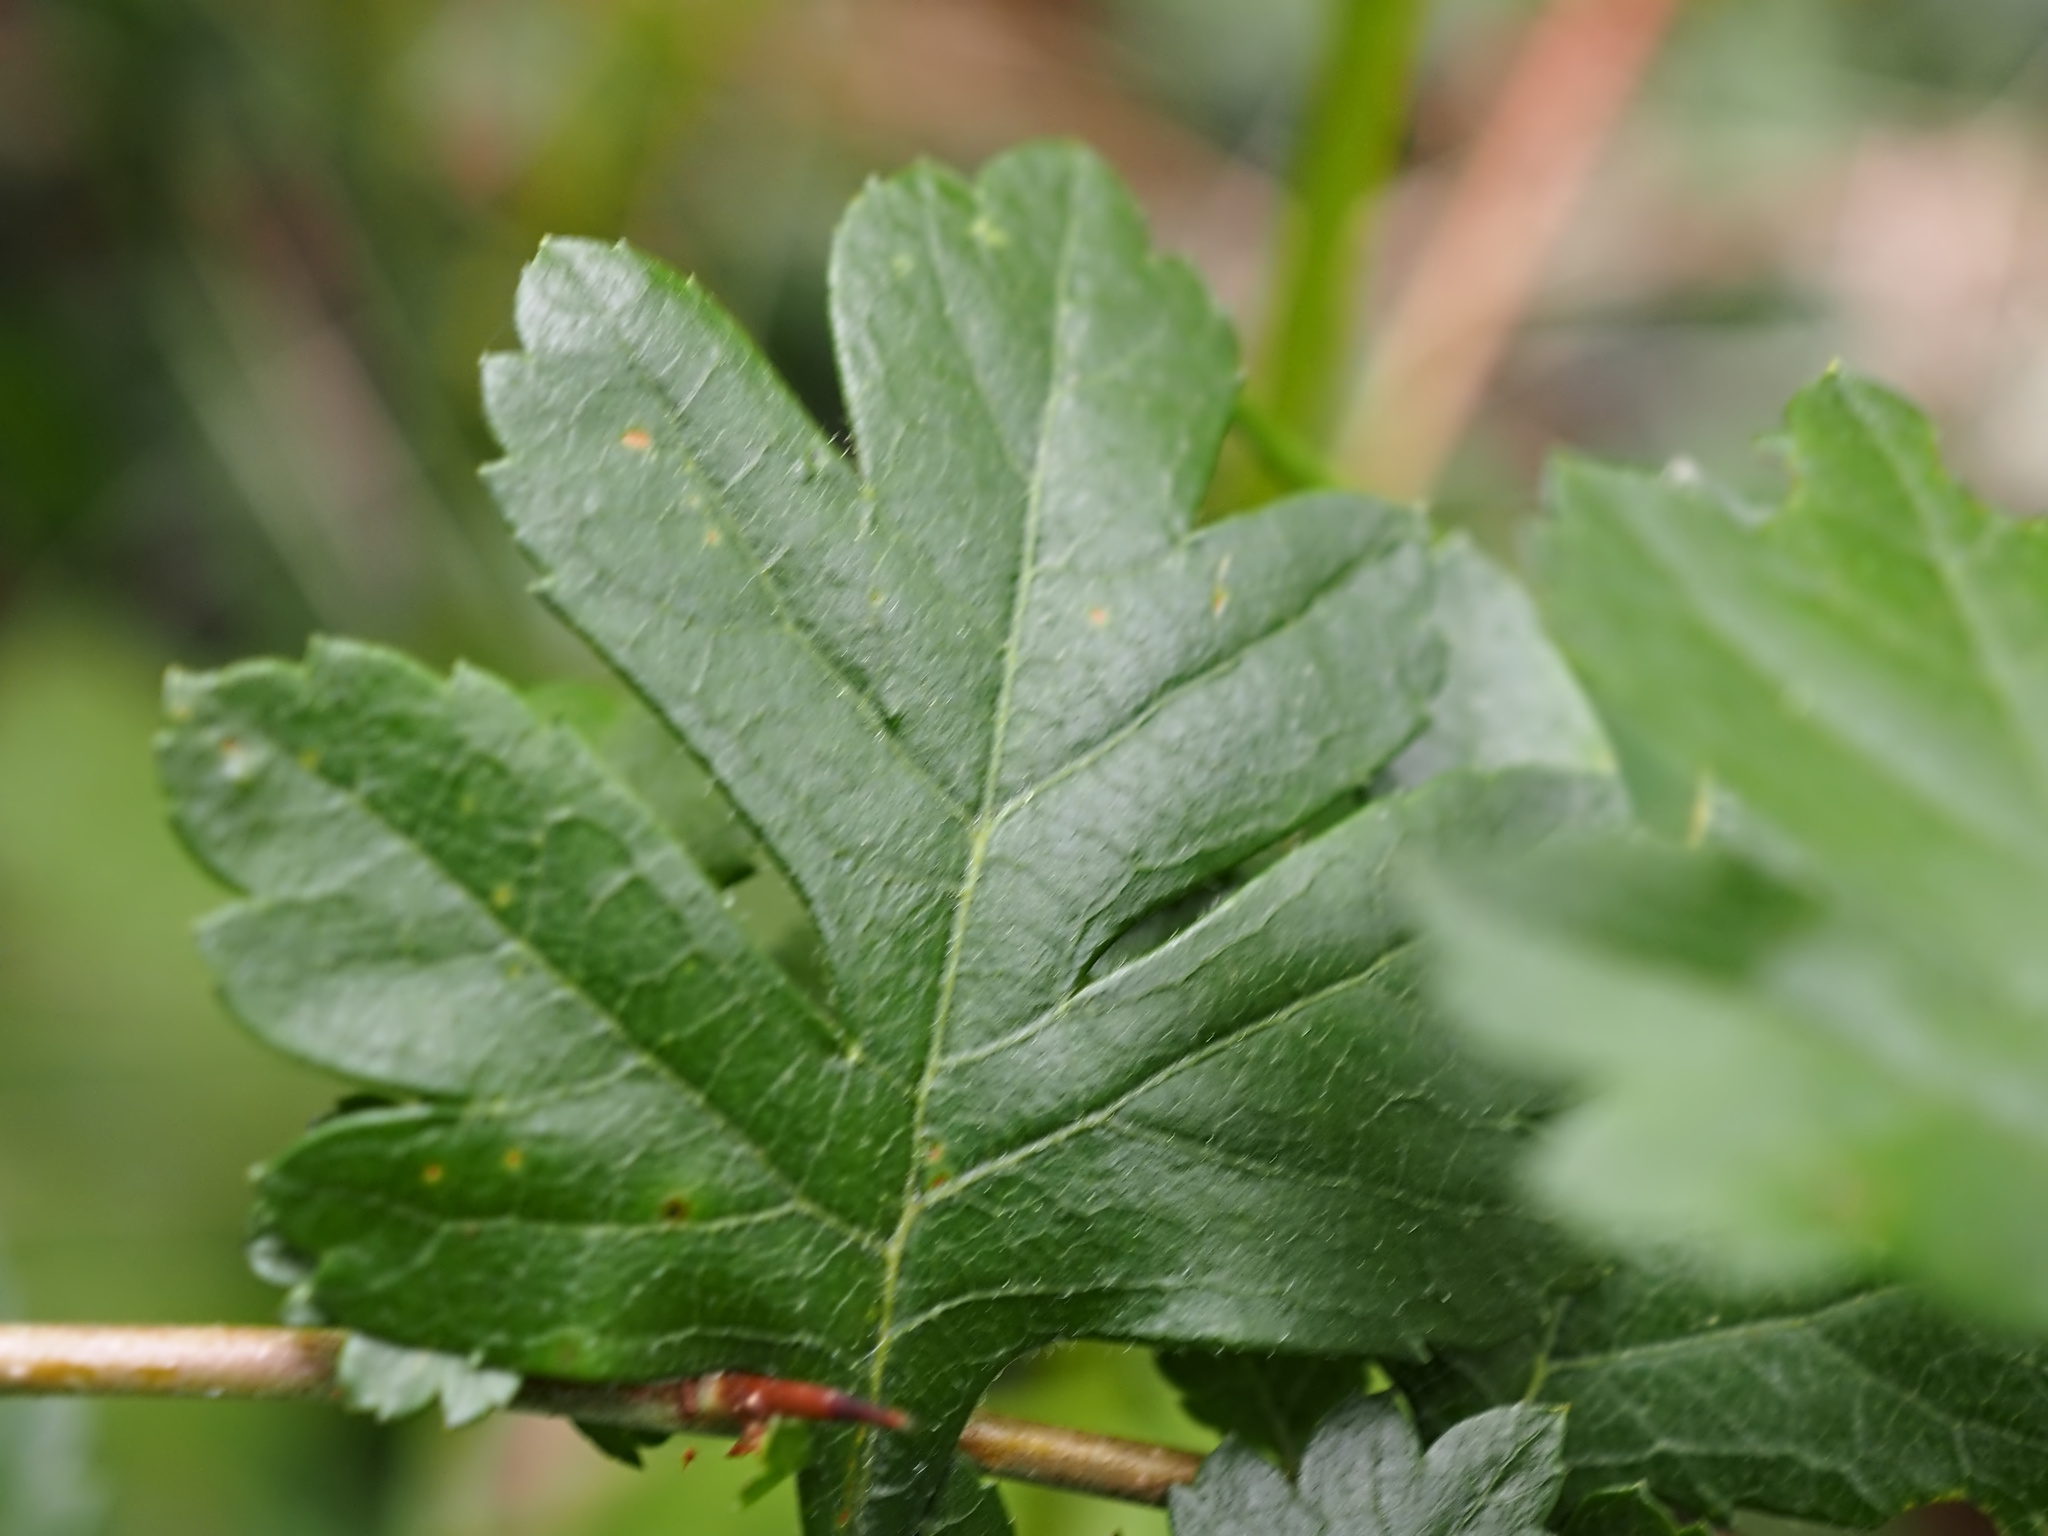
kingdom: Plantae
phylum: Tracheophyta
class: Magnoliopsida
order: Rosales
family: Rosaceae
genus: Crataegus
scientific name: Crataegus monogyna
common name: Hawthorn
